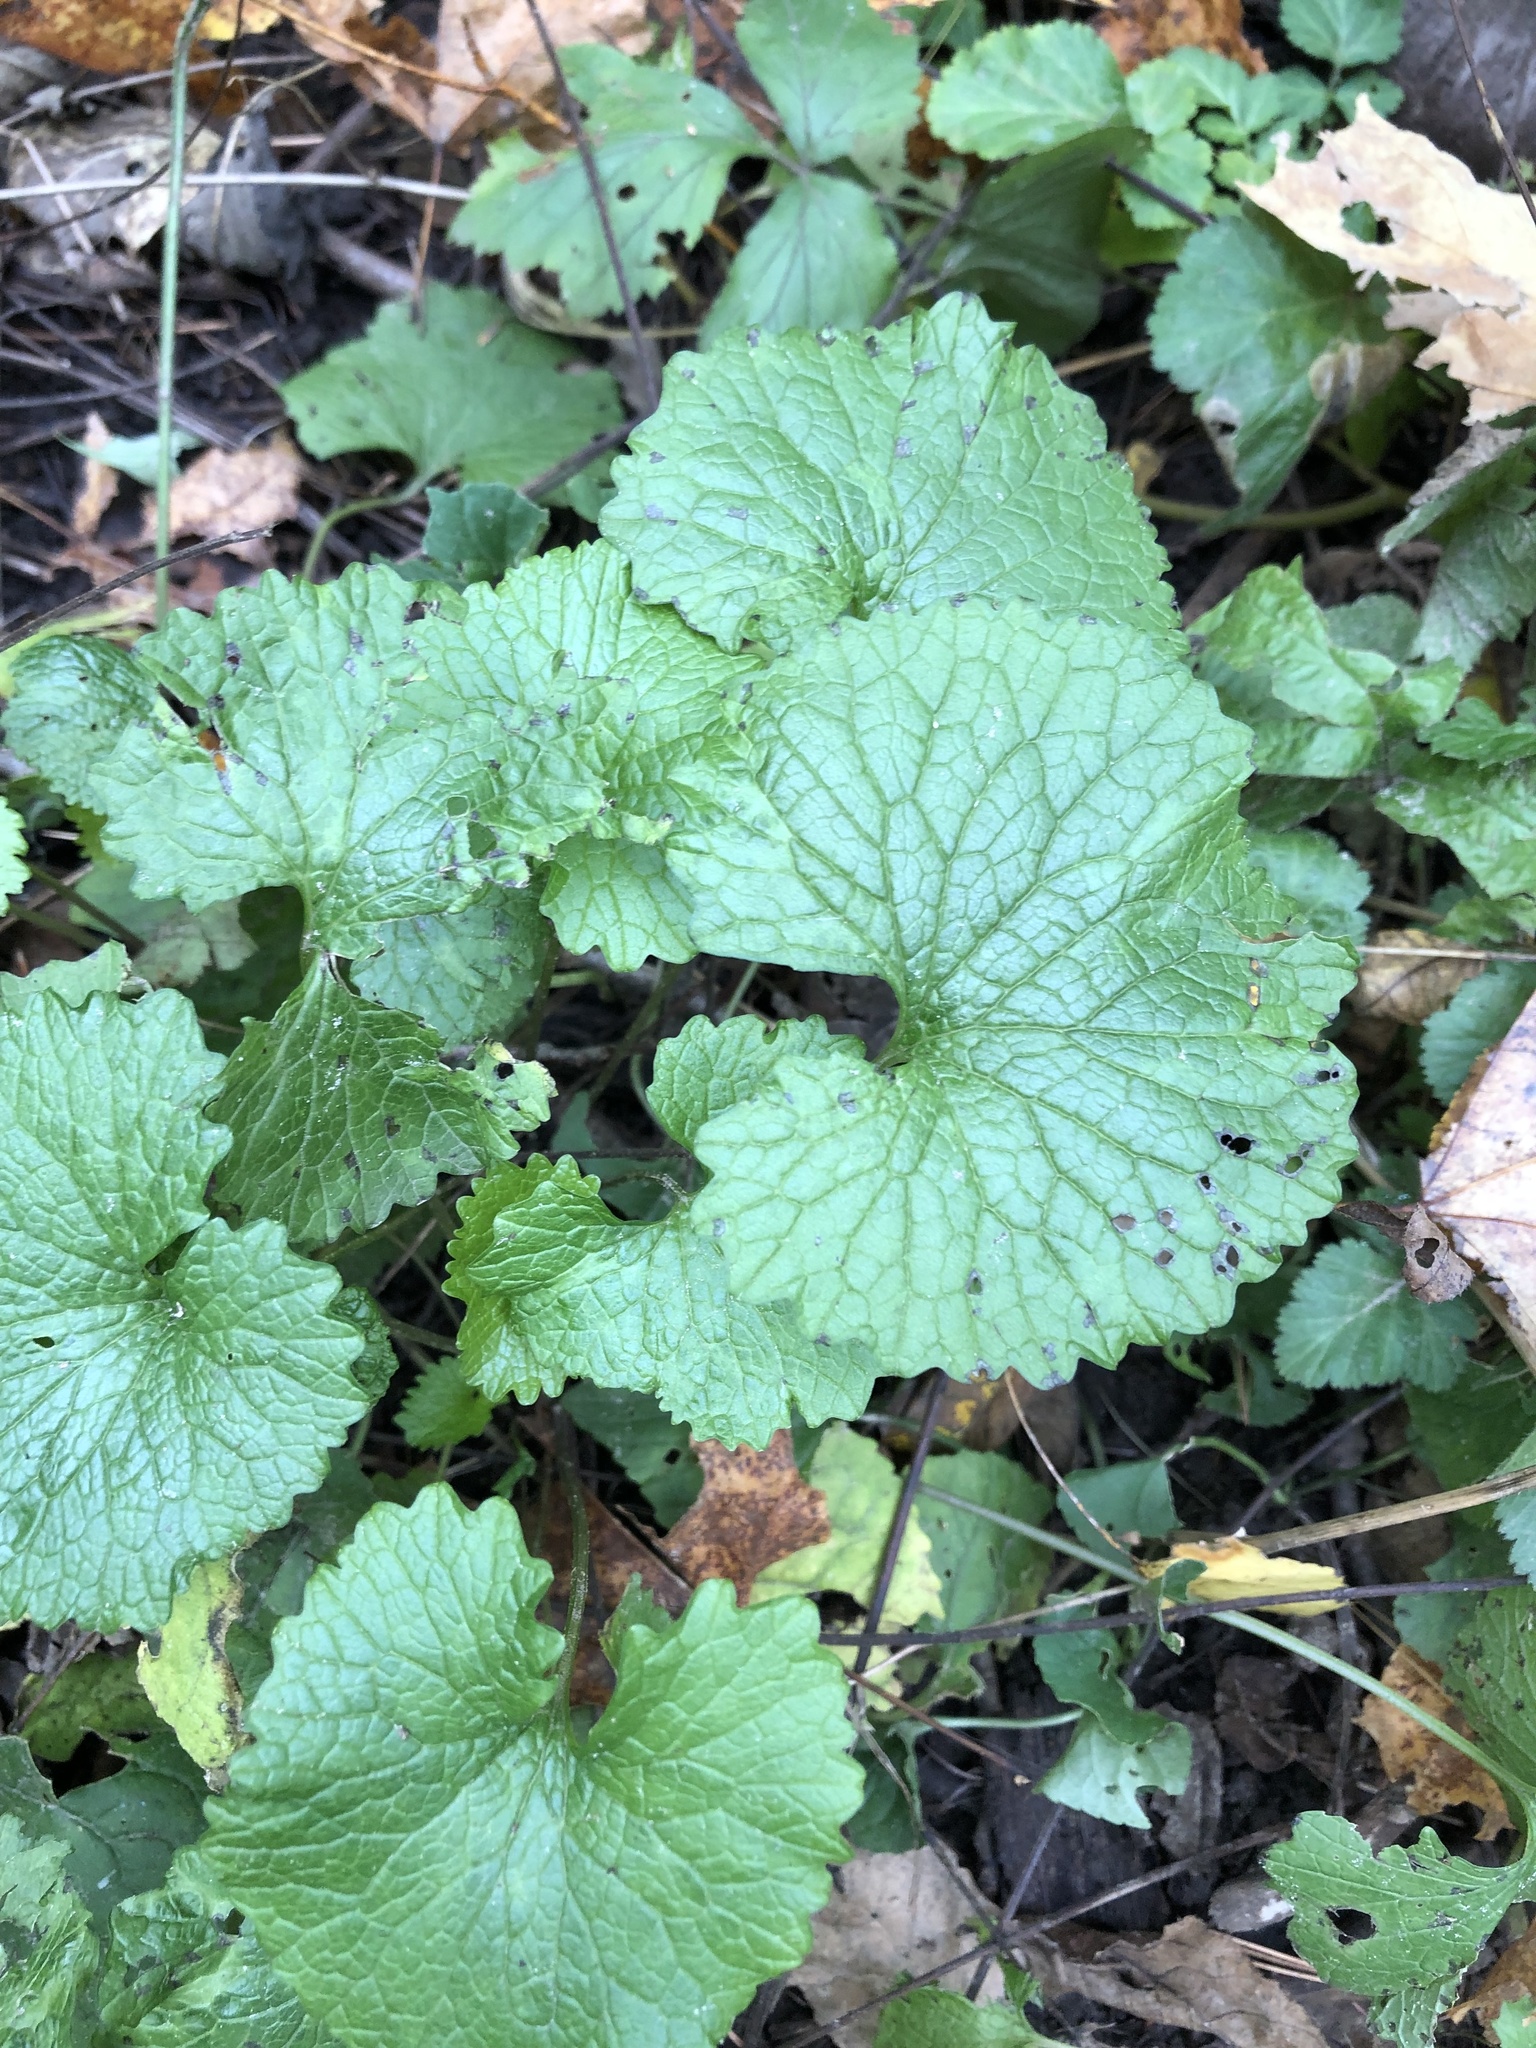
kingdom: Plantae
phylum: Tracheophyta
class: Magnoliopsida
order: Brassicales
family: Brassicaceae
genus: Alliaria
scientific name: Alliaria petiolata
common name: Garlic mustard
